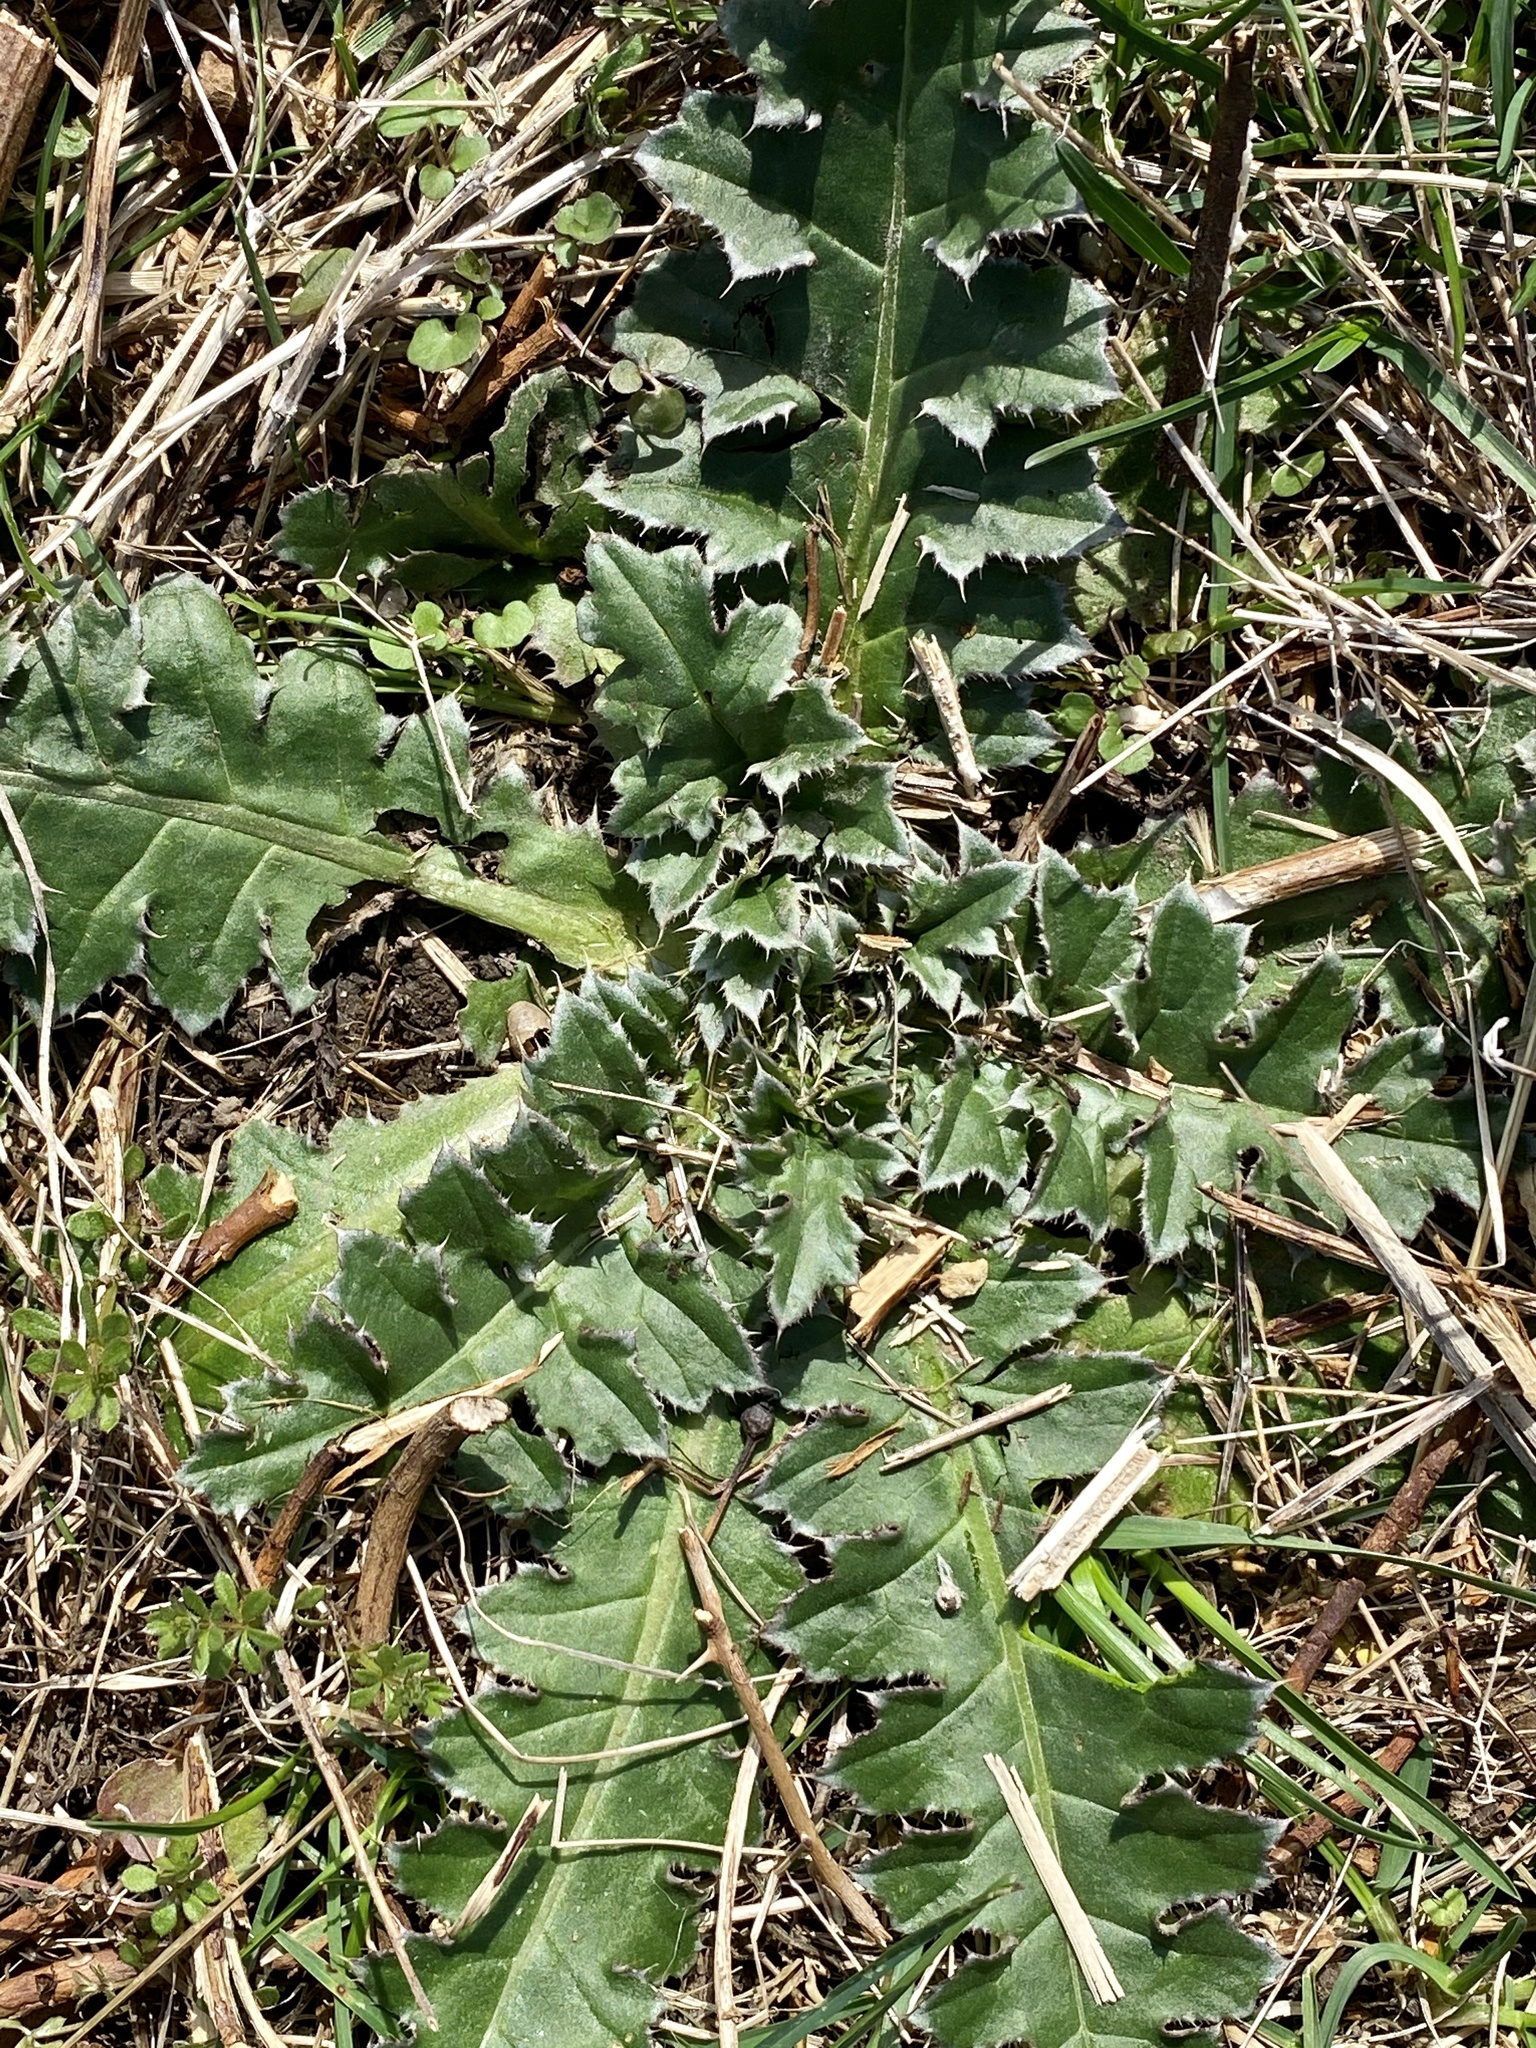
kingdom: Plantae
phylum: Tracheophyta
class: Magnoliopsida
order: Asterales
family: Asteraceae
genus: Carduus
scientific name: Carduus nutans
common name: Musk thistle
